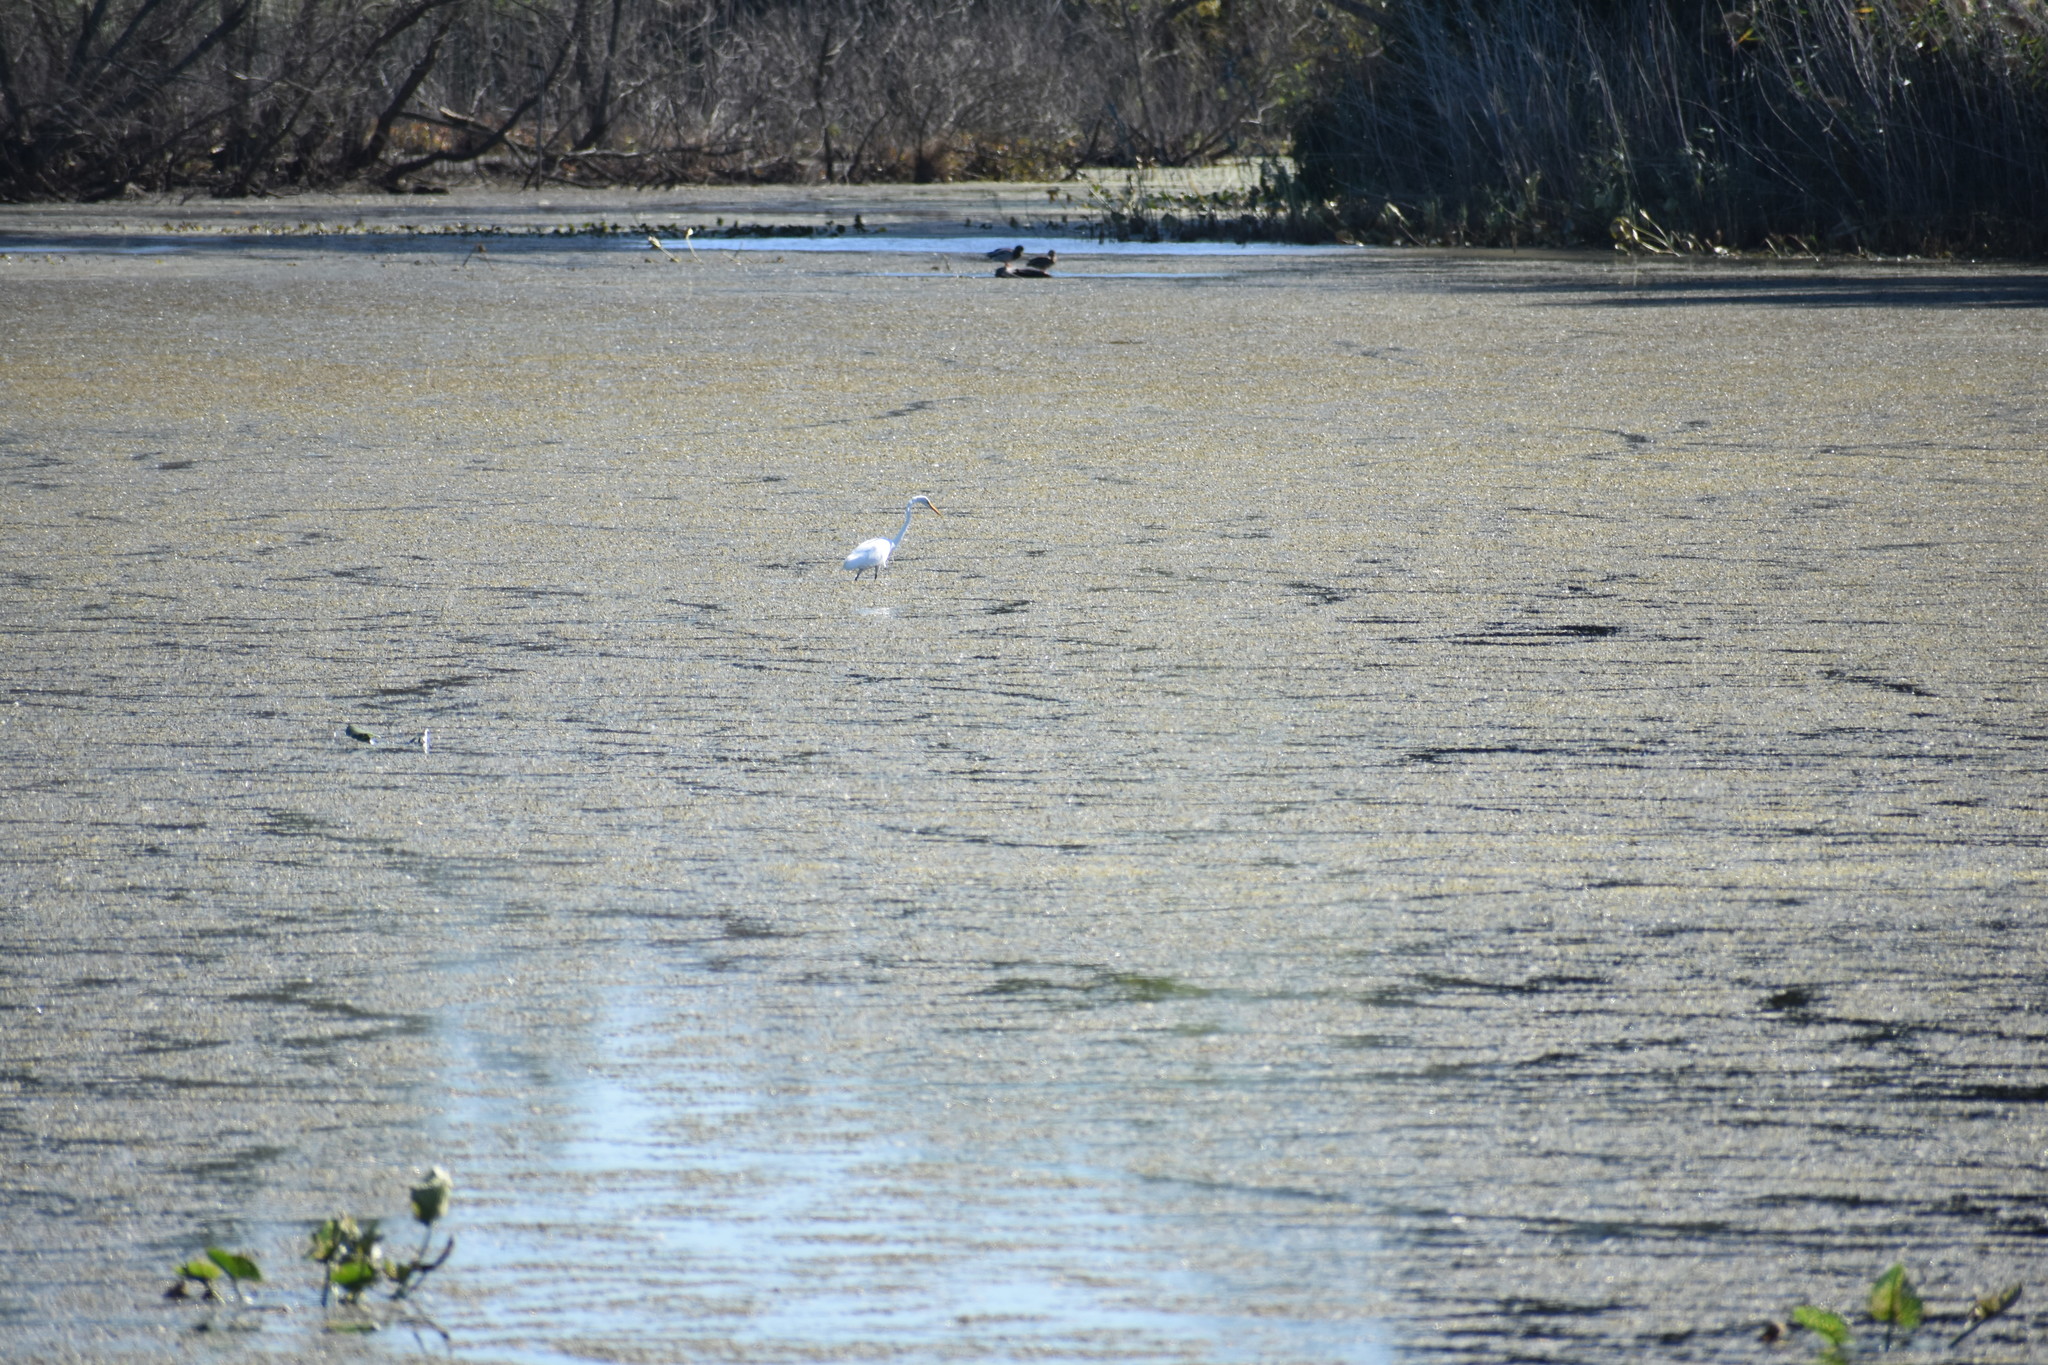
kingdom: Animalia
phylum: Chordata
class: Aves
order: Pelecaniformes
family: Ardeidae
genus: Ardea
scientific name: Ardea alba
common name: Great egret
